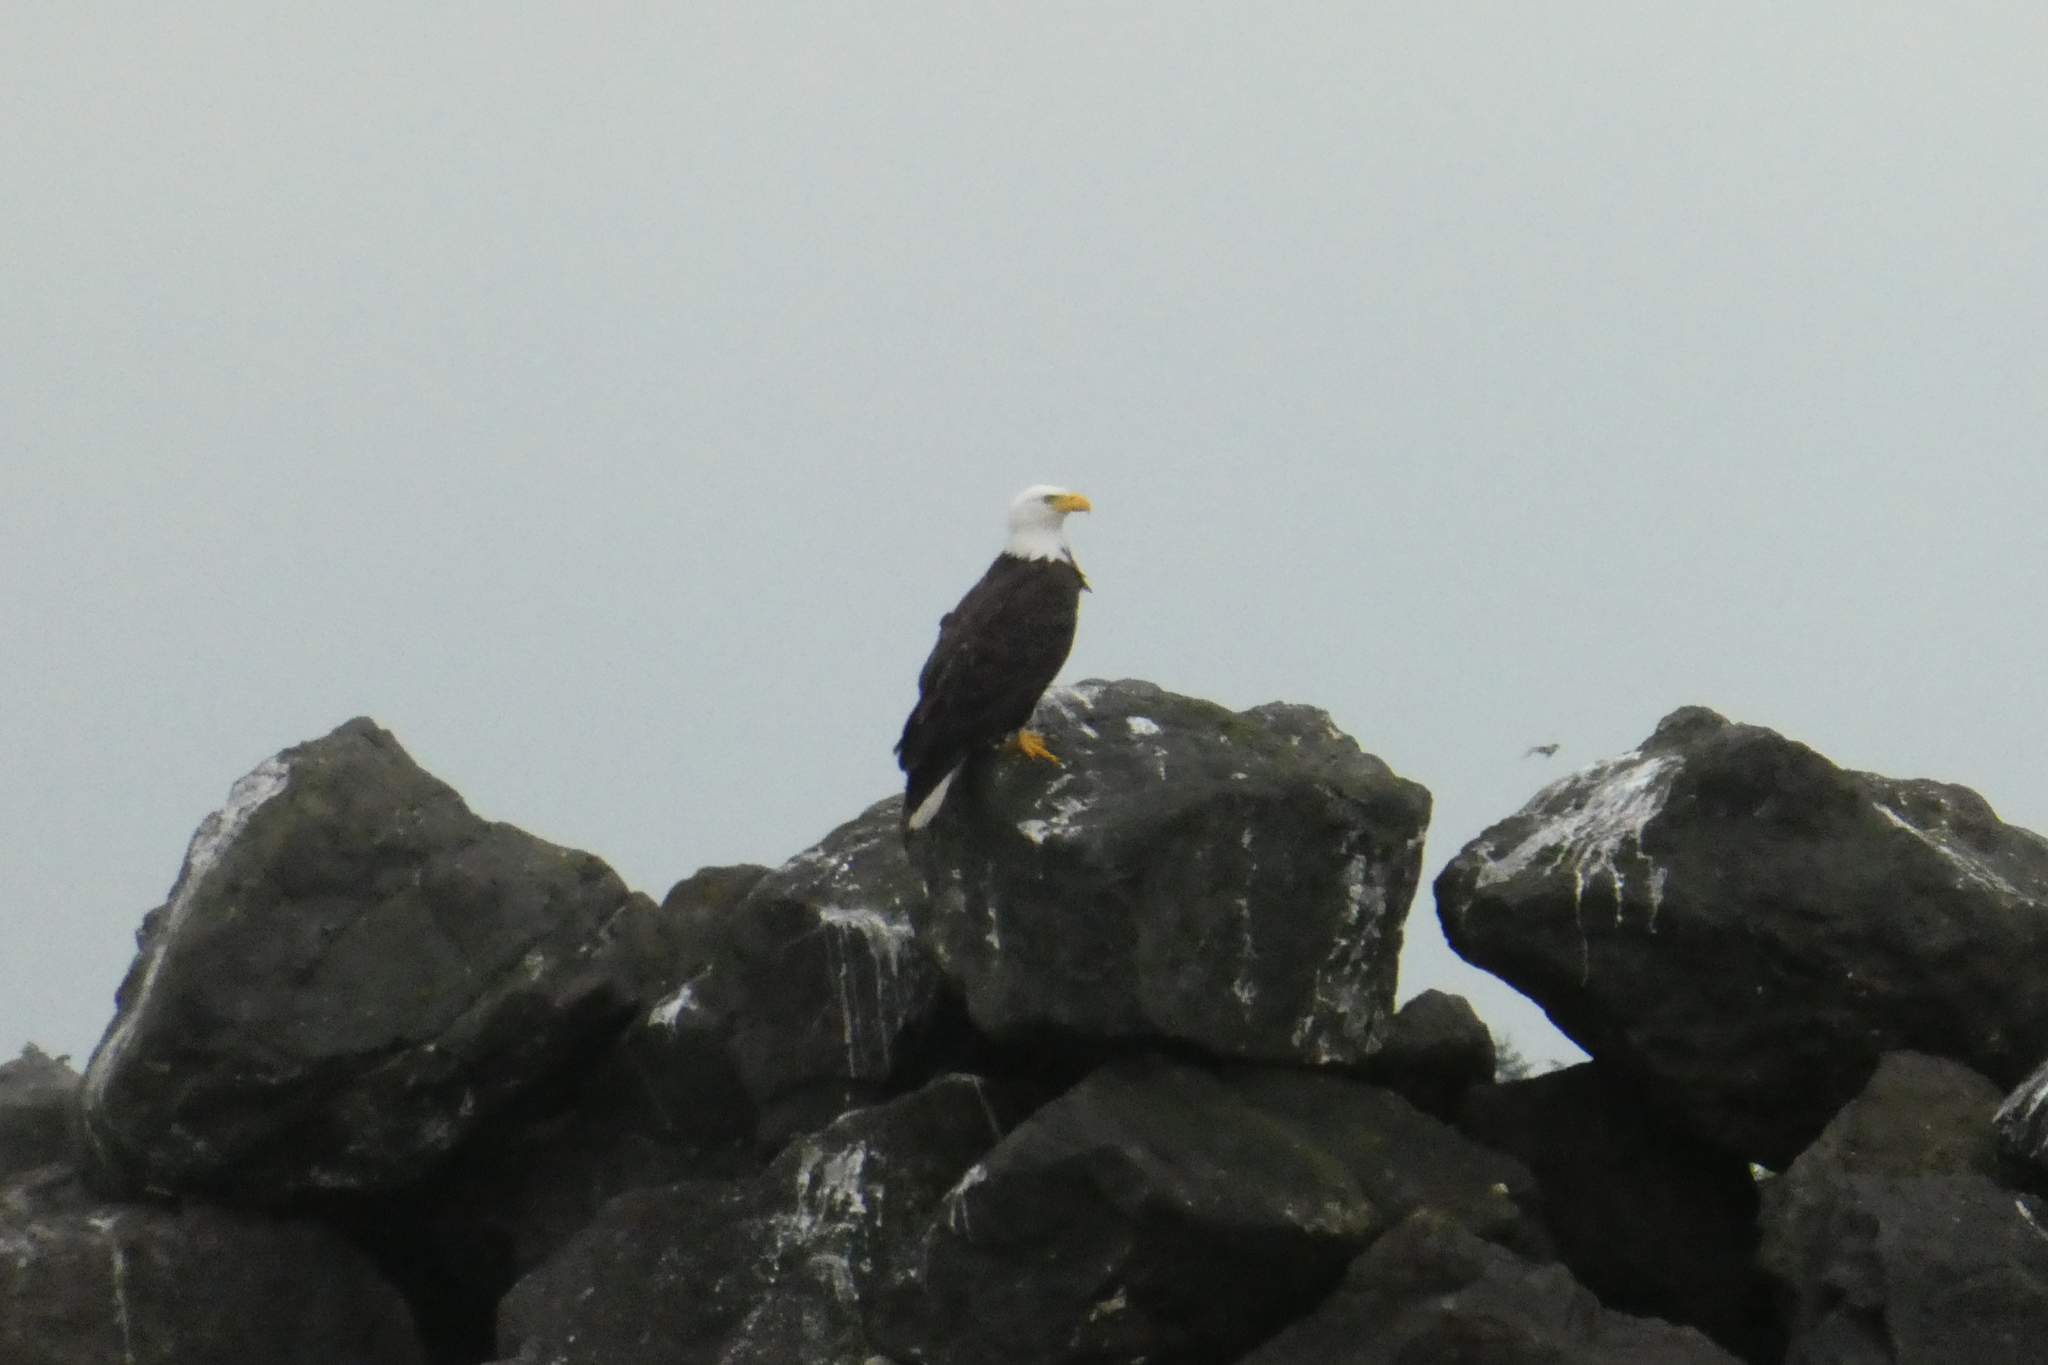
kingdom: Animalia
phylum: Chordata
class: Aves
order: Accipitriformes
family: Accipitridae
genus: Haliaeetus
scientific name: Haliaeetus leucocephalus
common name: Bald eagle
